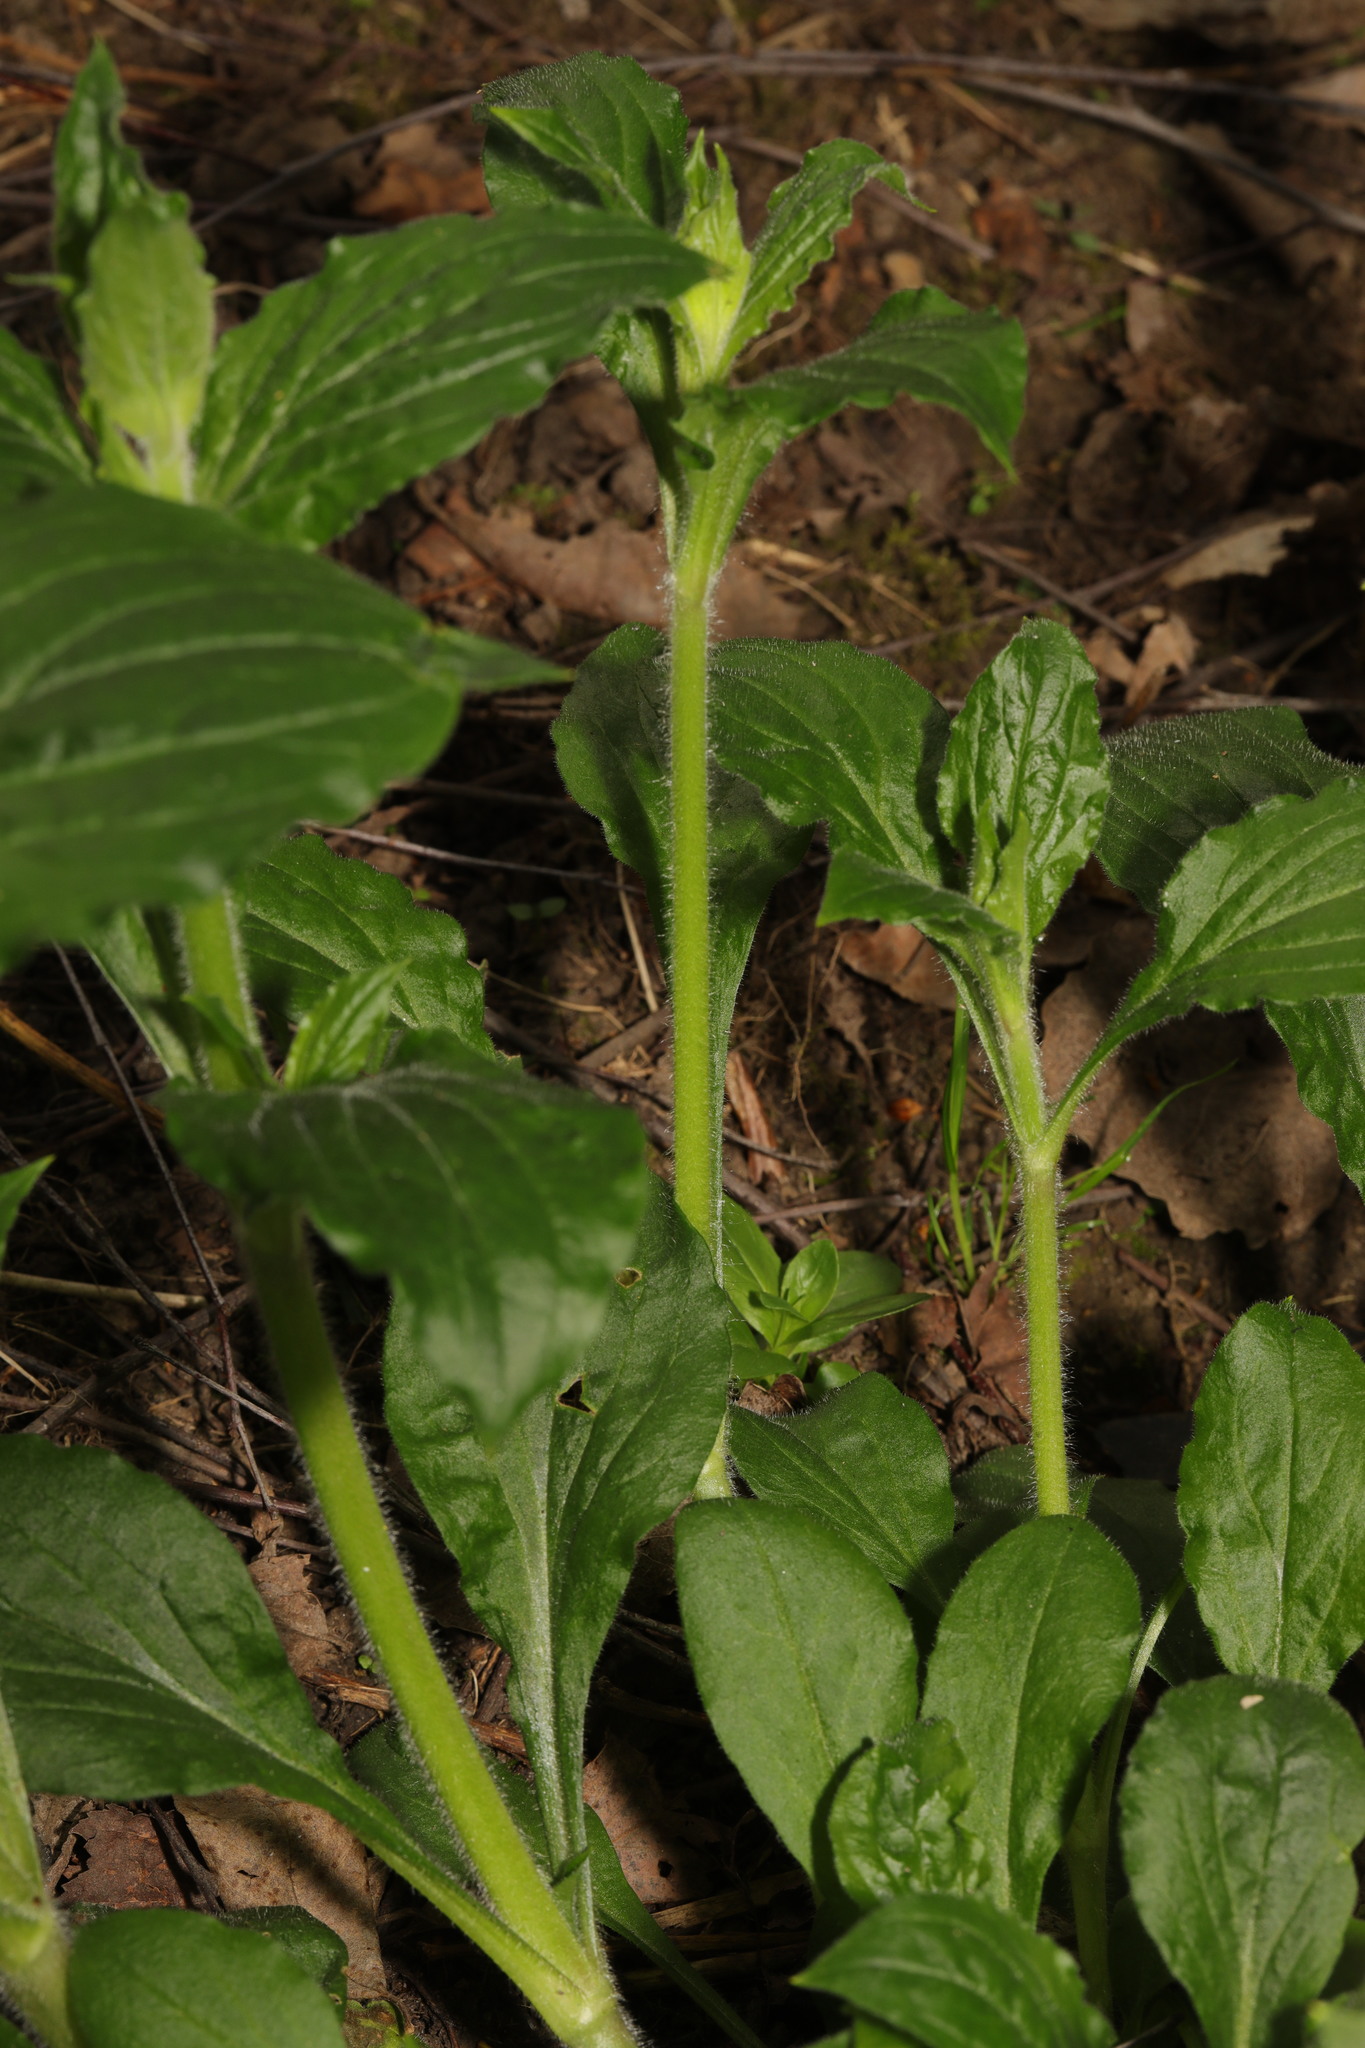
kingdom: Plantae
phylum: Tracheophyta
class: Magnoliopsida
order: Caryophyllales
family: Caryophyllaceae
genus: Silene
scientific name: Silene dioica
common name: Red campion
